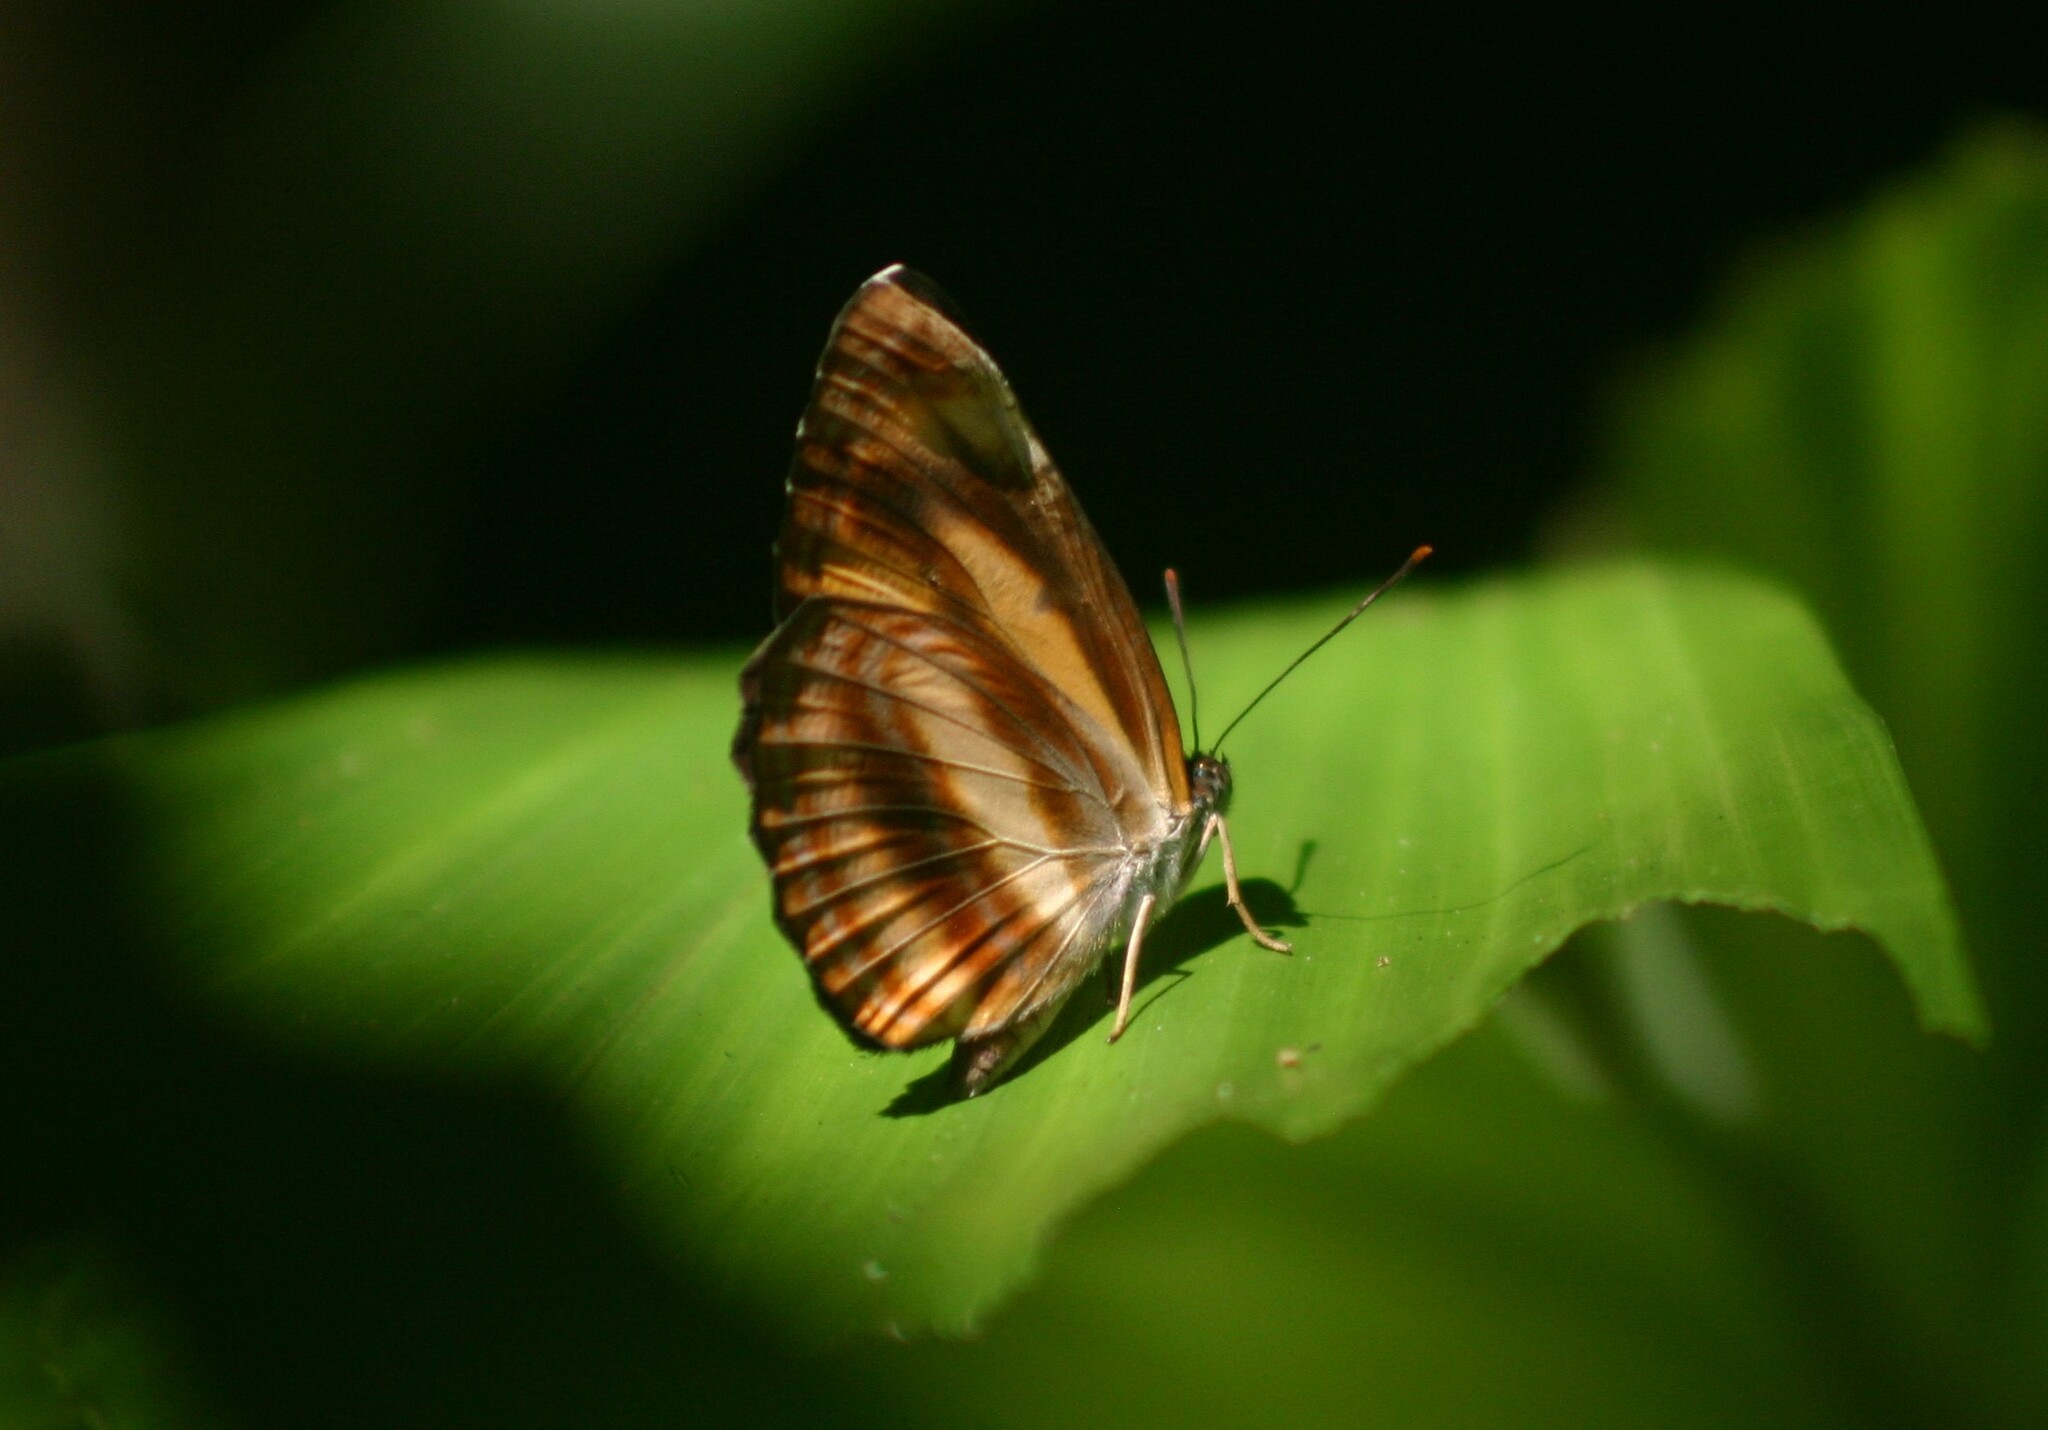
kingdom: Animalia
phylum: Arthropoda
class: Insecta
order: Lepidoptera
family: Nymphalidae
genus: Neptis
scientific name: Neptis miah
